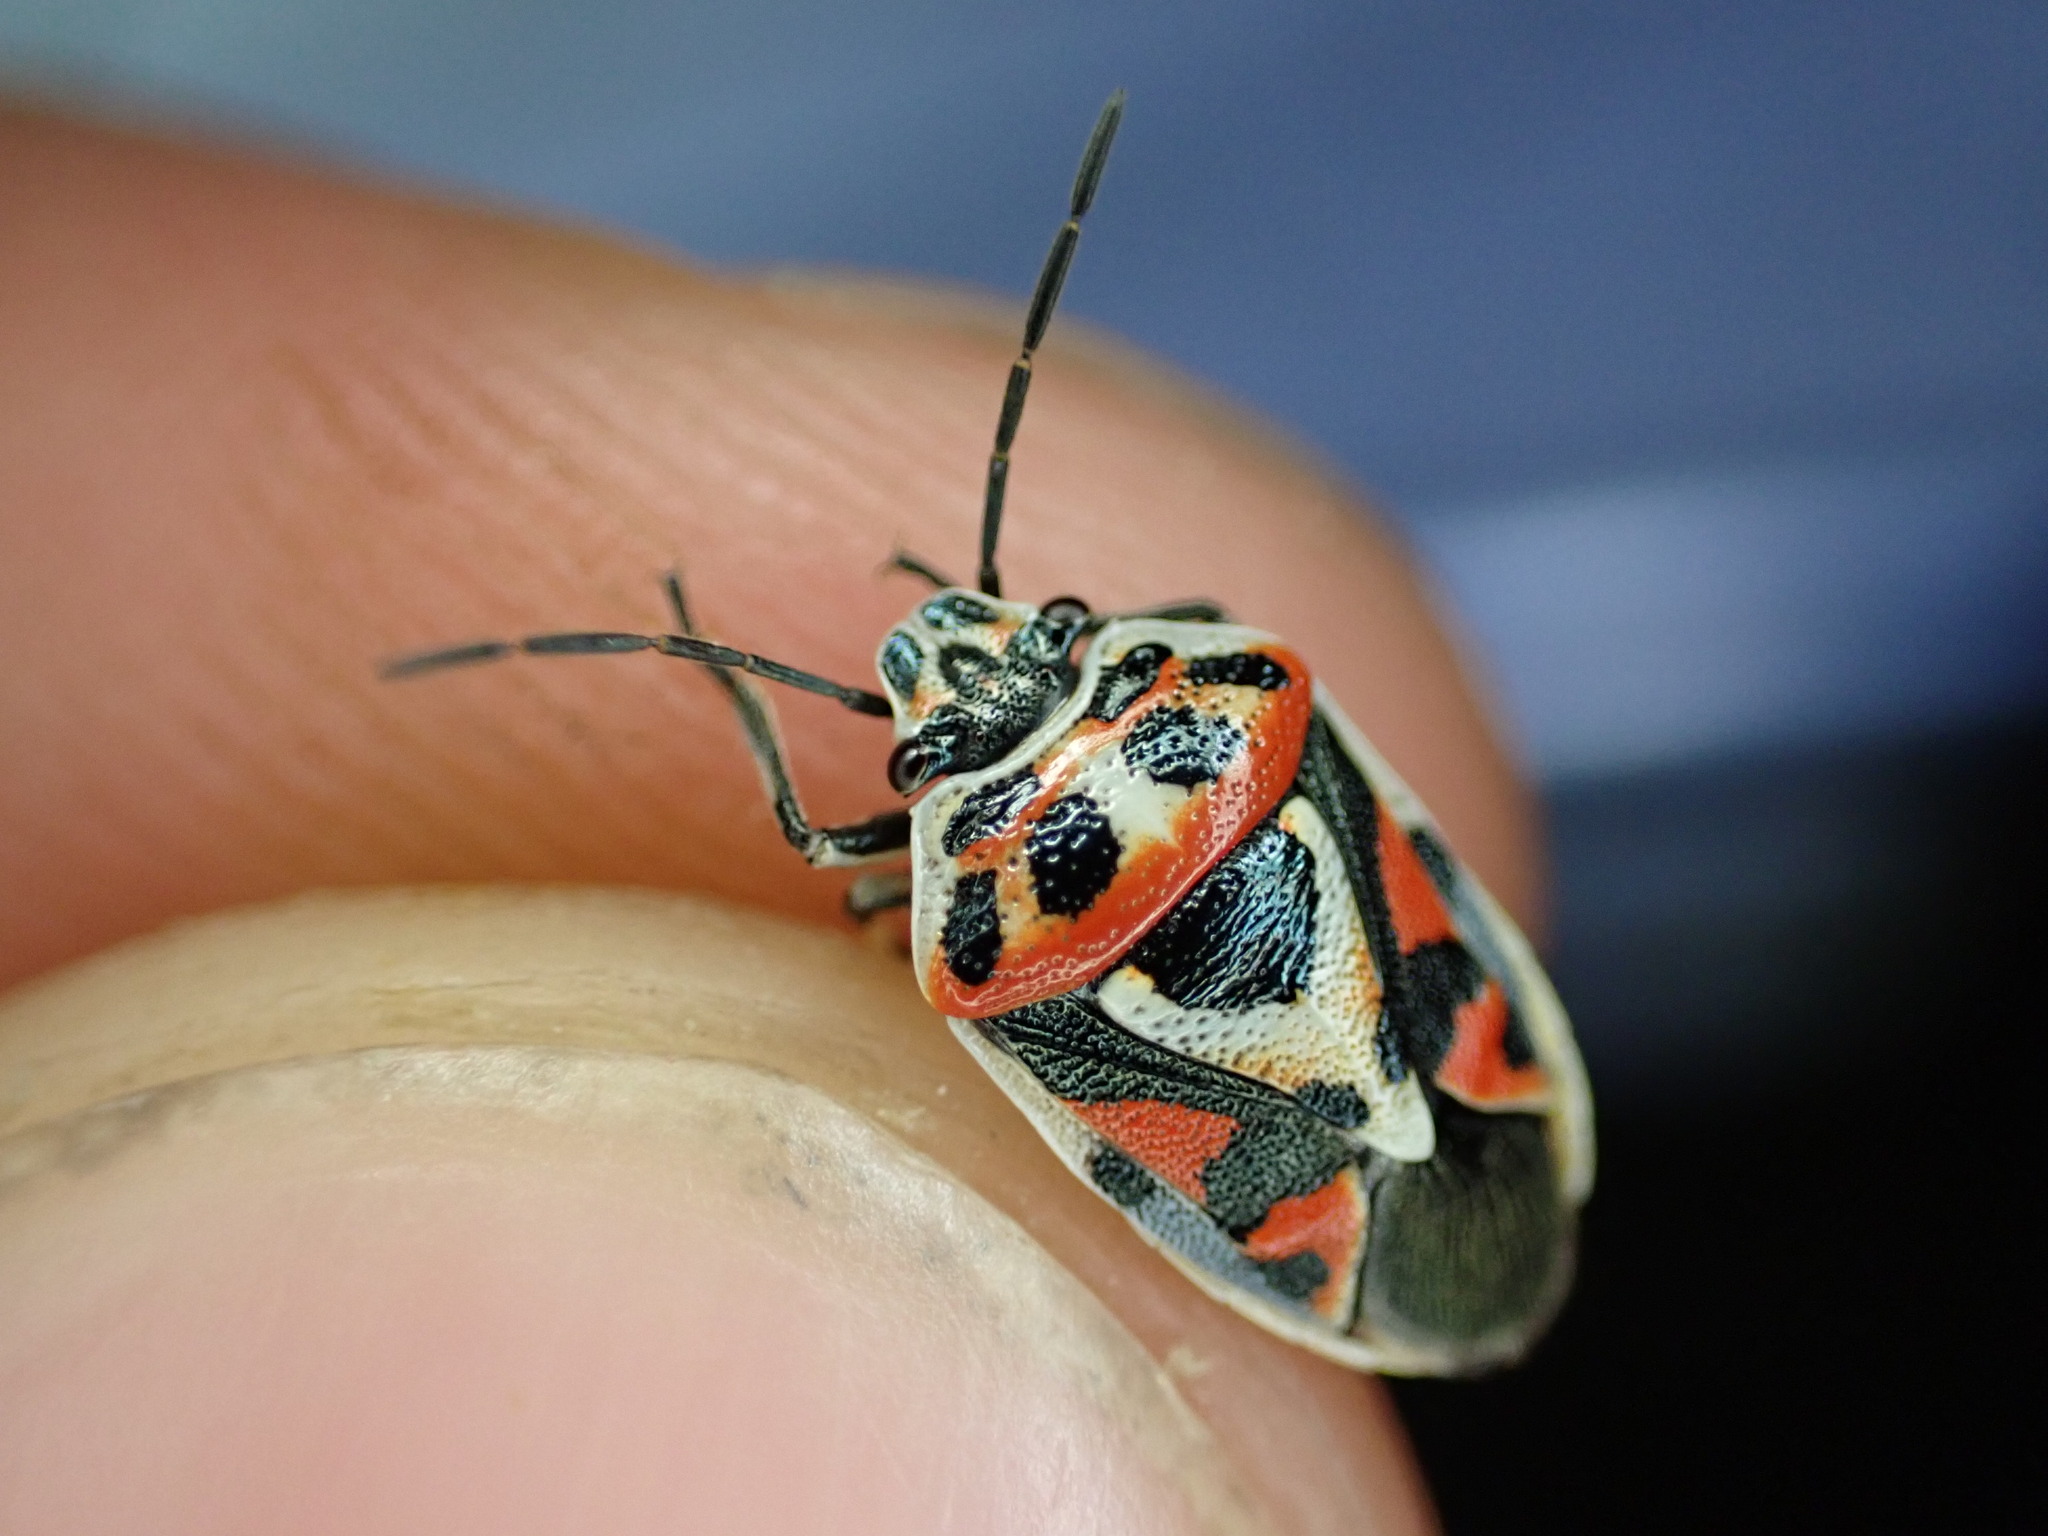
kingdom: Animalia
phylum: Arthropoda
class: Insecta
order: Hemiptera
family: Pentatomidae
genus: Eurydema
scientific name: Eurydema ornata
